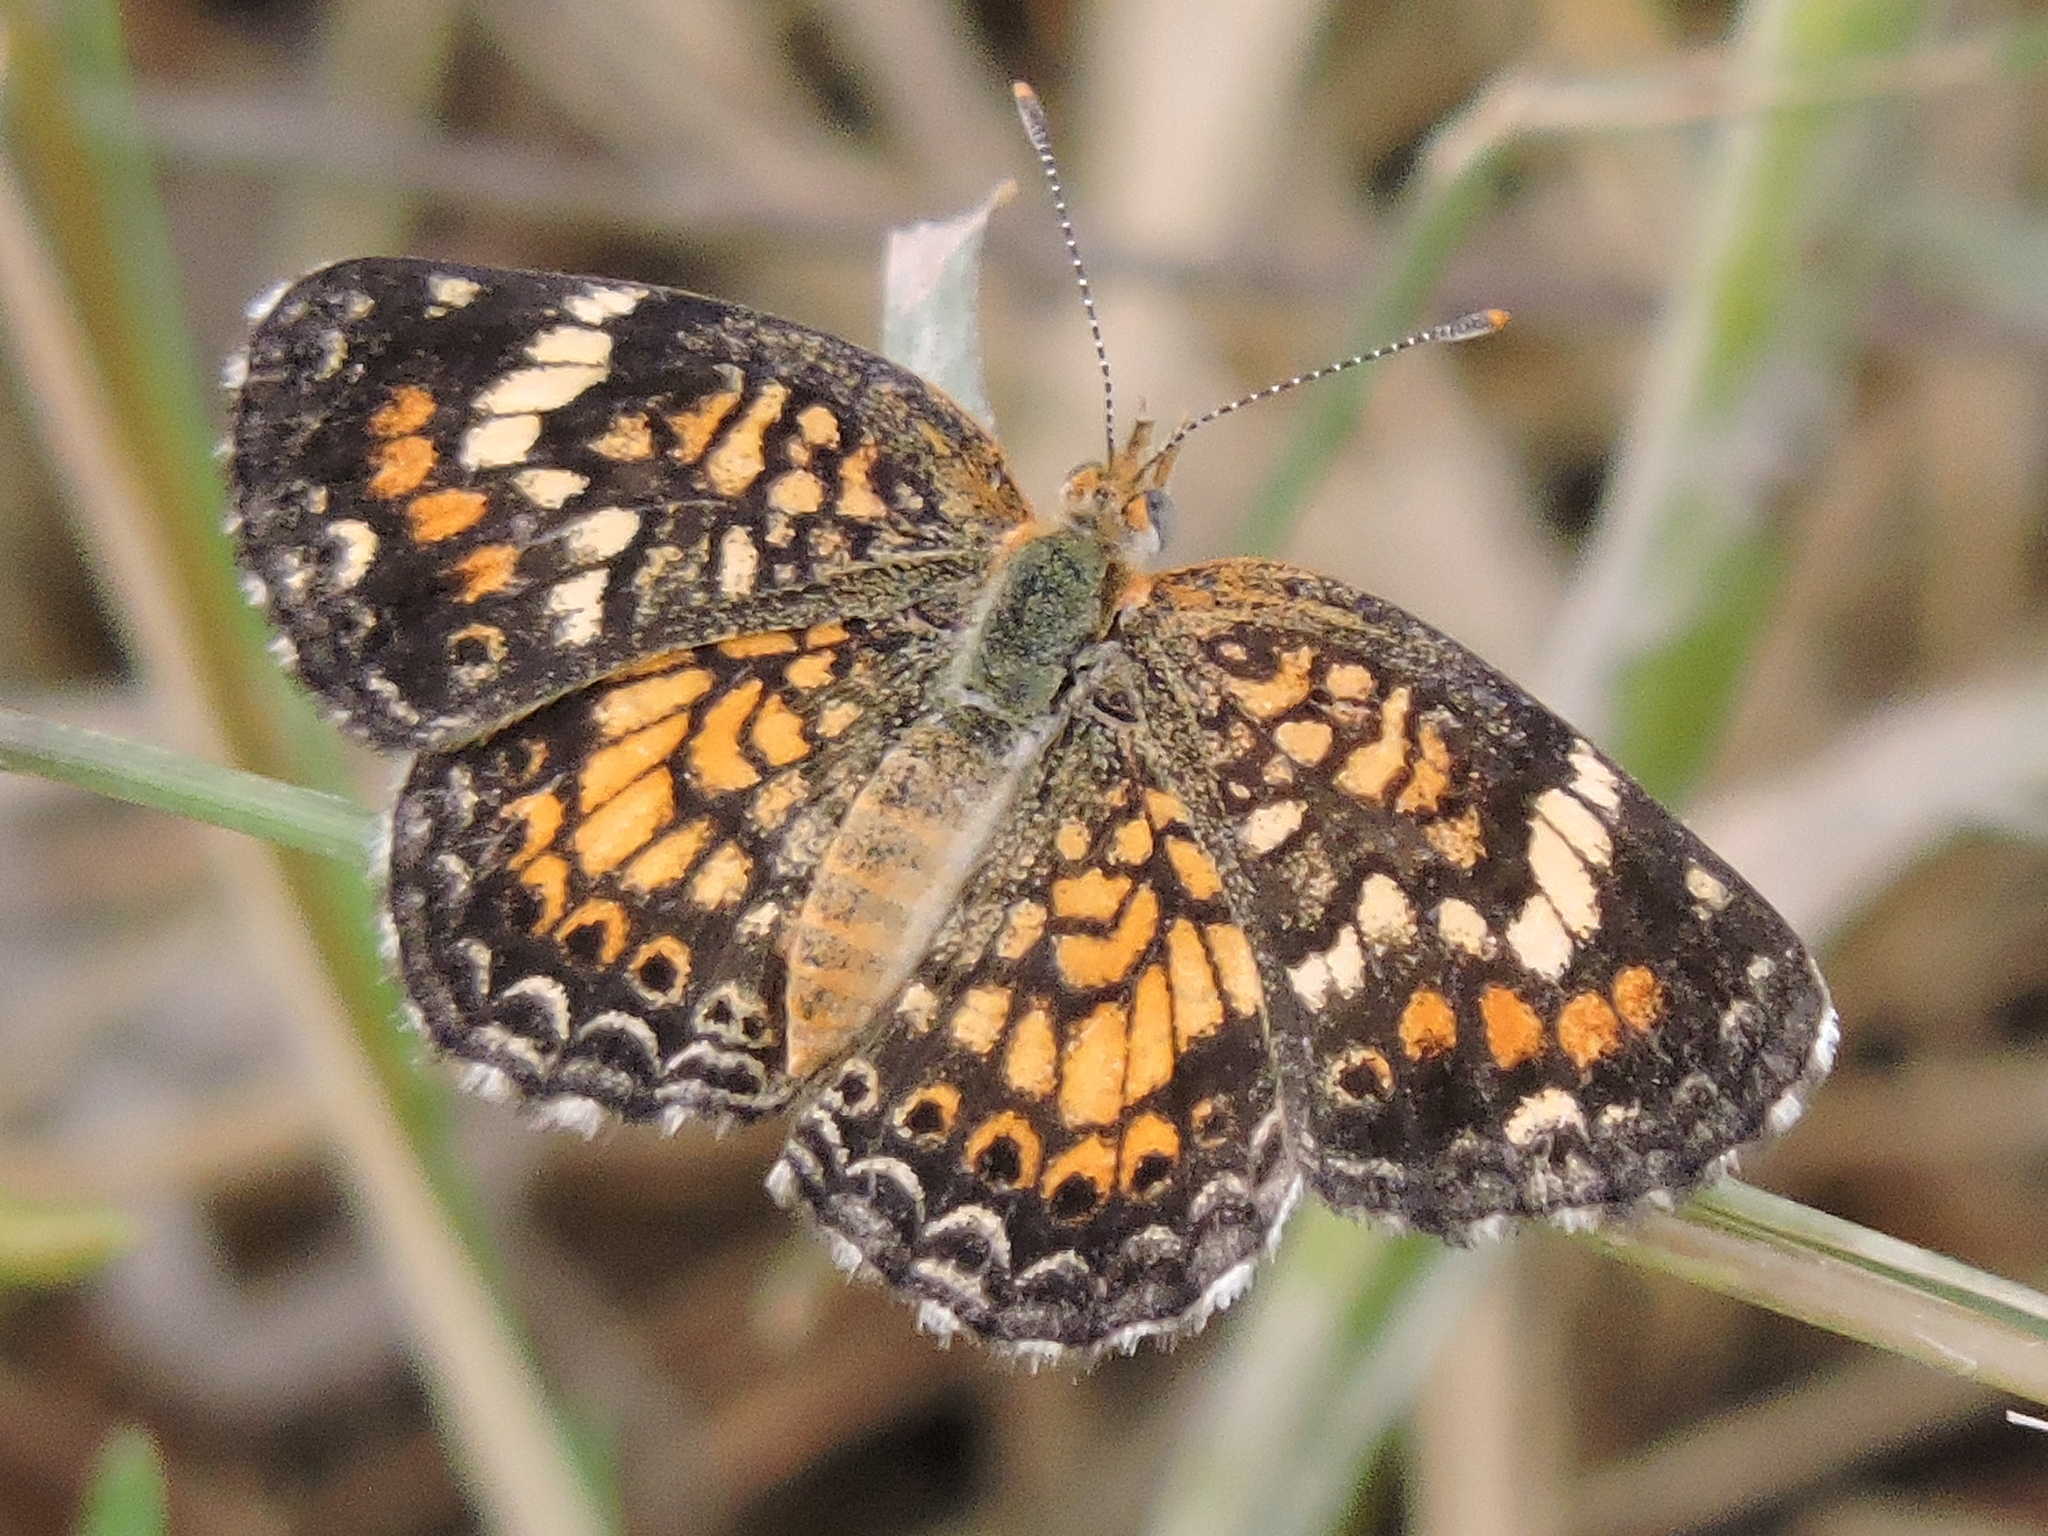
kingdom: Animalia
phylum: Arthropoda
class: Insecta
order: Lepidoptera
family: Nymphalidae
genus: Phyciodes
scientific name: Phyciodes phaon
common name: Phaon crescent
